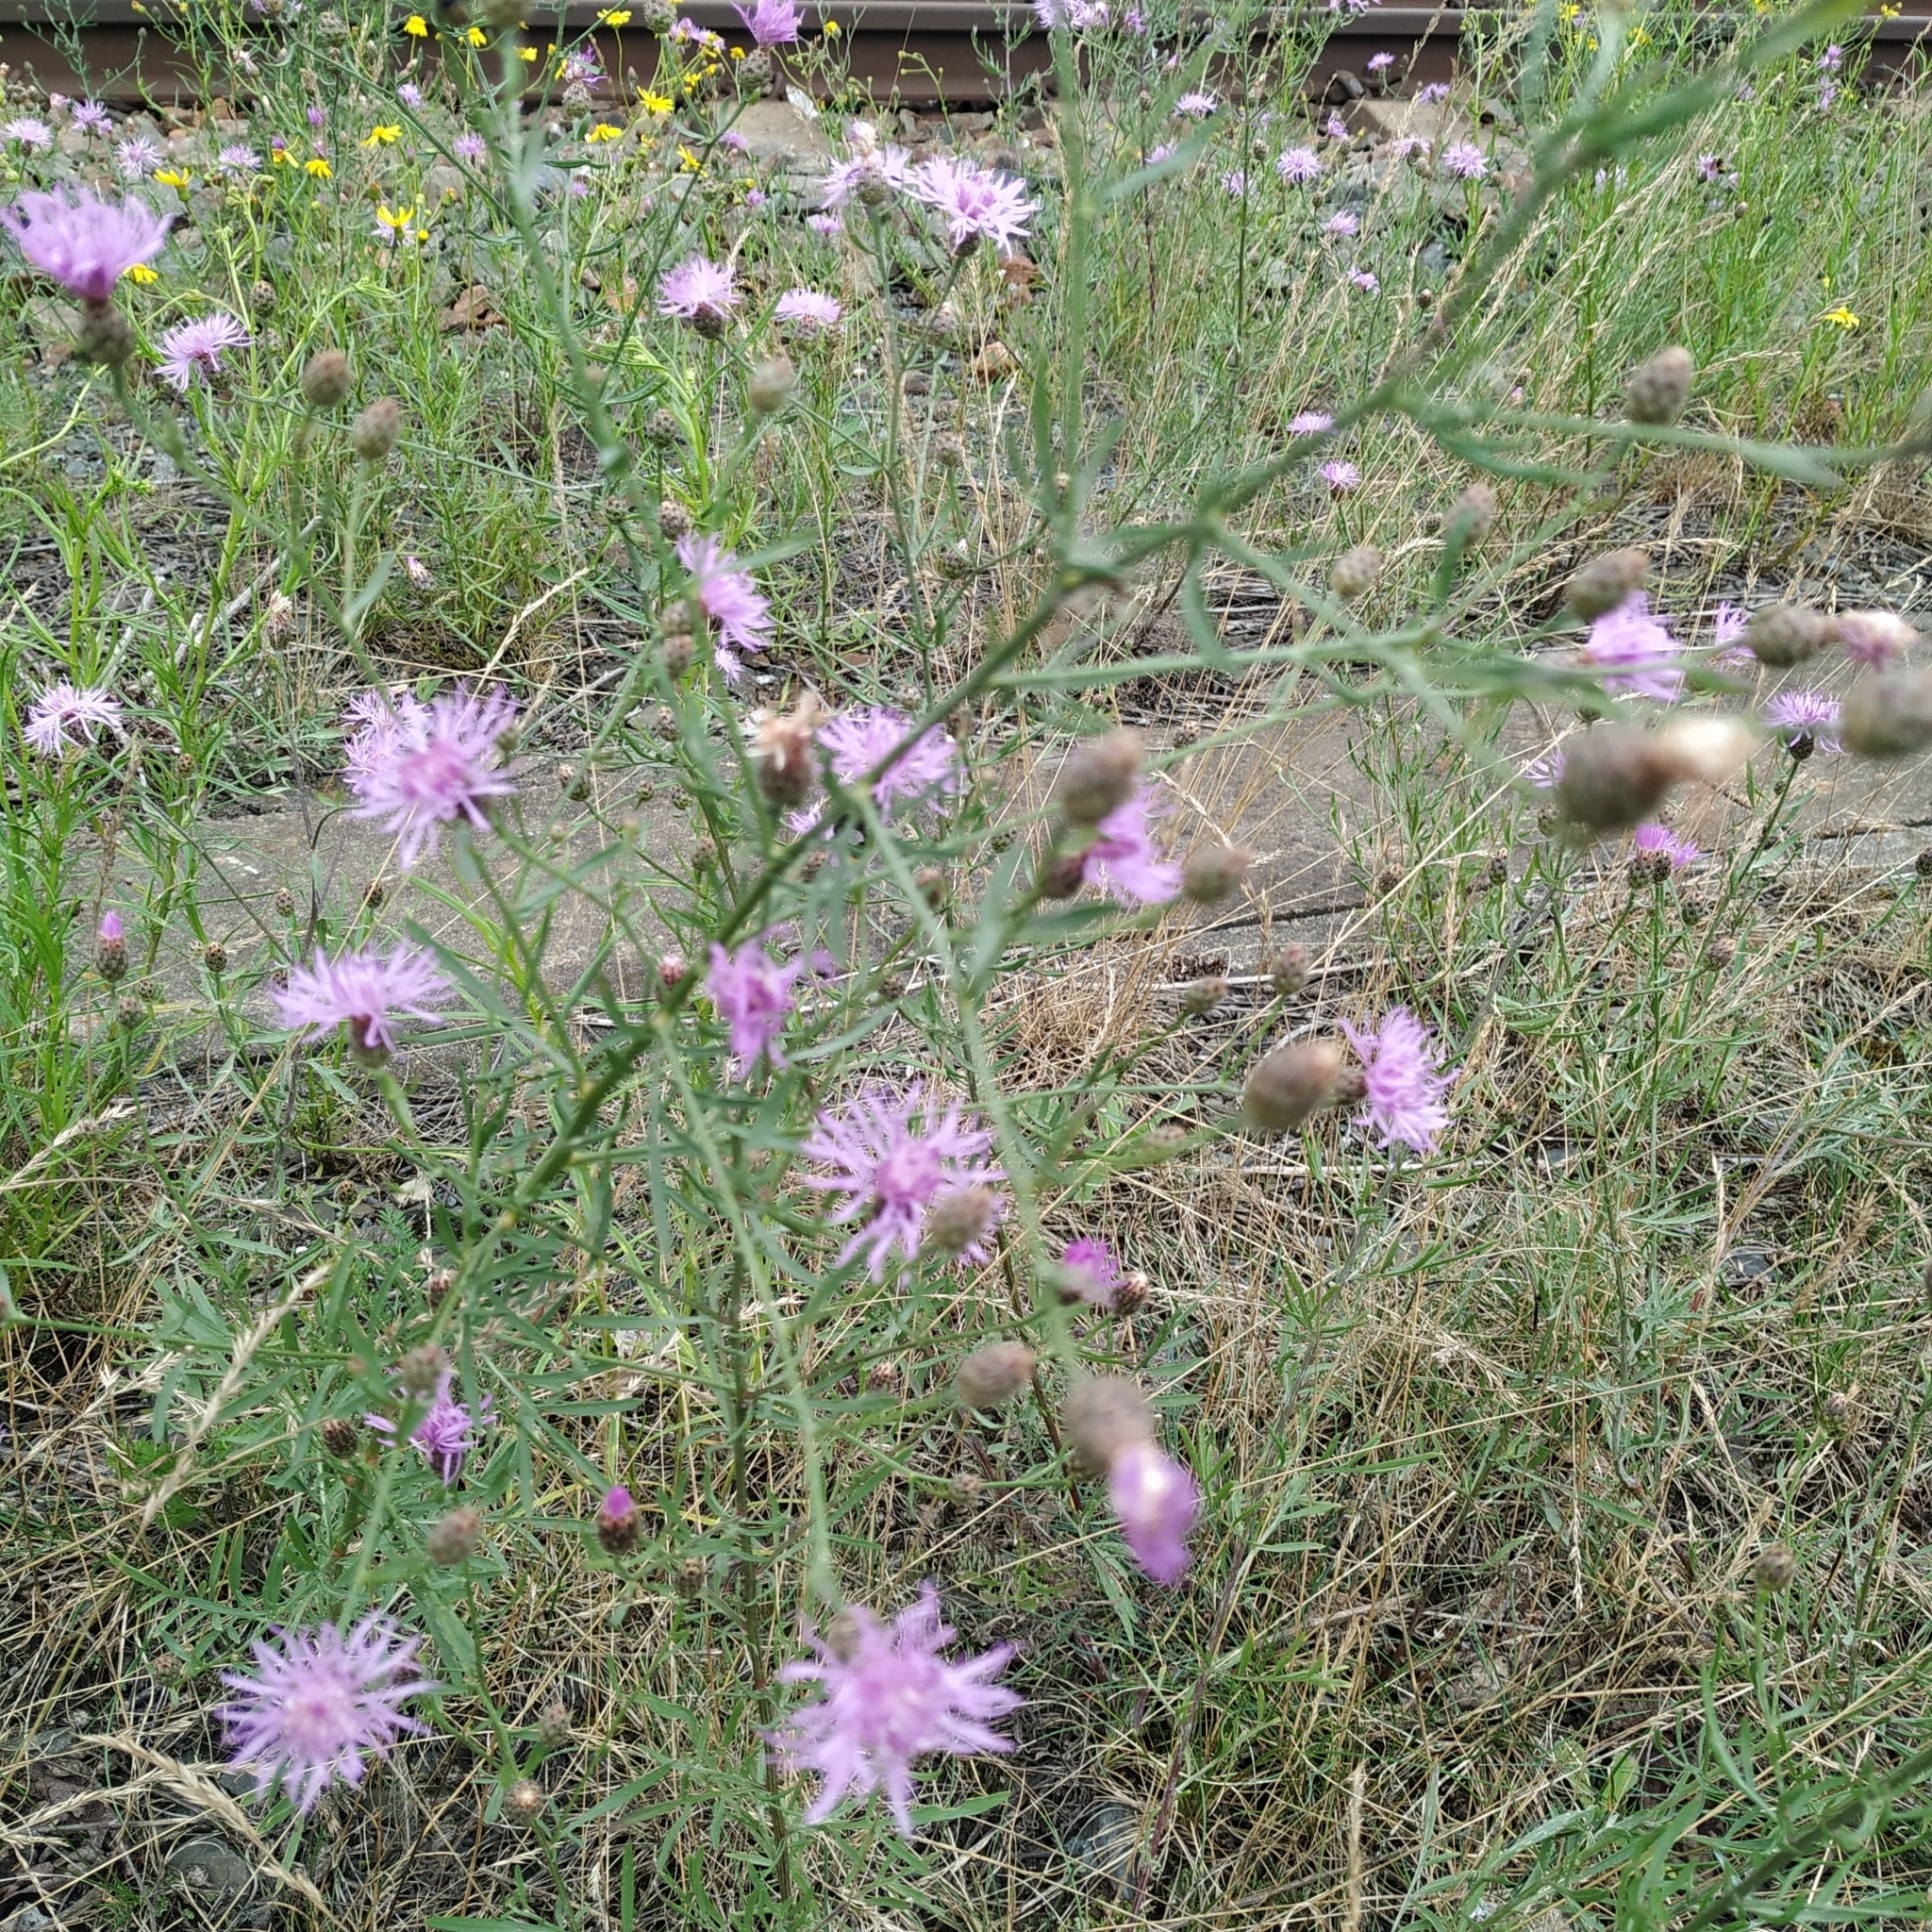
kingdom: Plantae
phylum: Tracheophyta
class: Magnoliopsida
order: Asterales
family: Asteraceae
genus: Centaurea
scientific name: Centaurea stoebe
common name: Spotted knapweed
